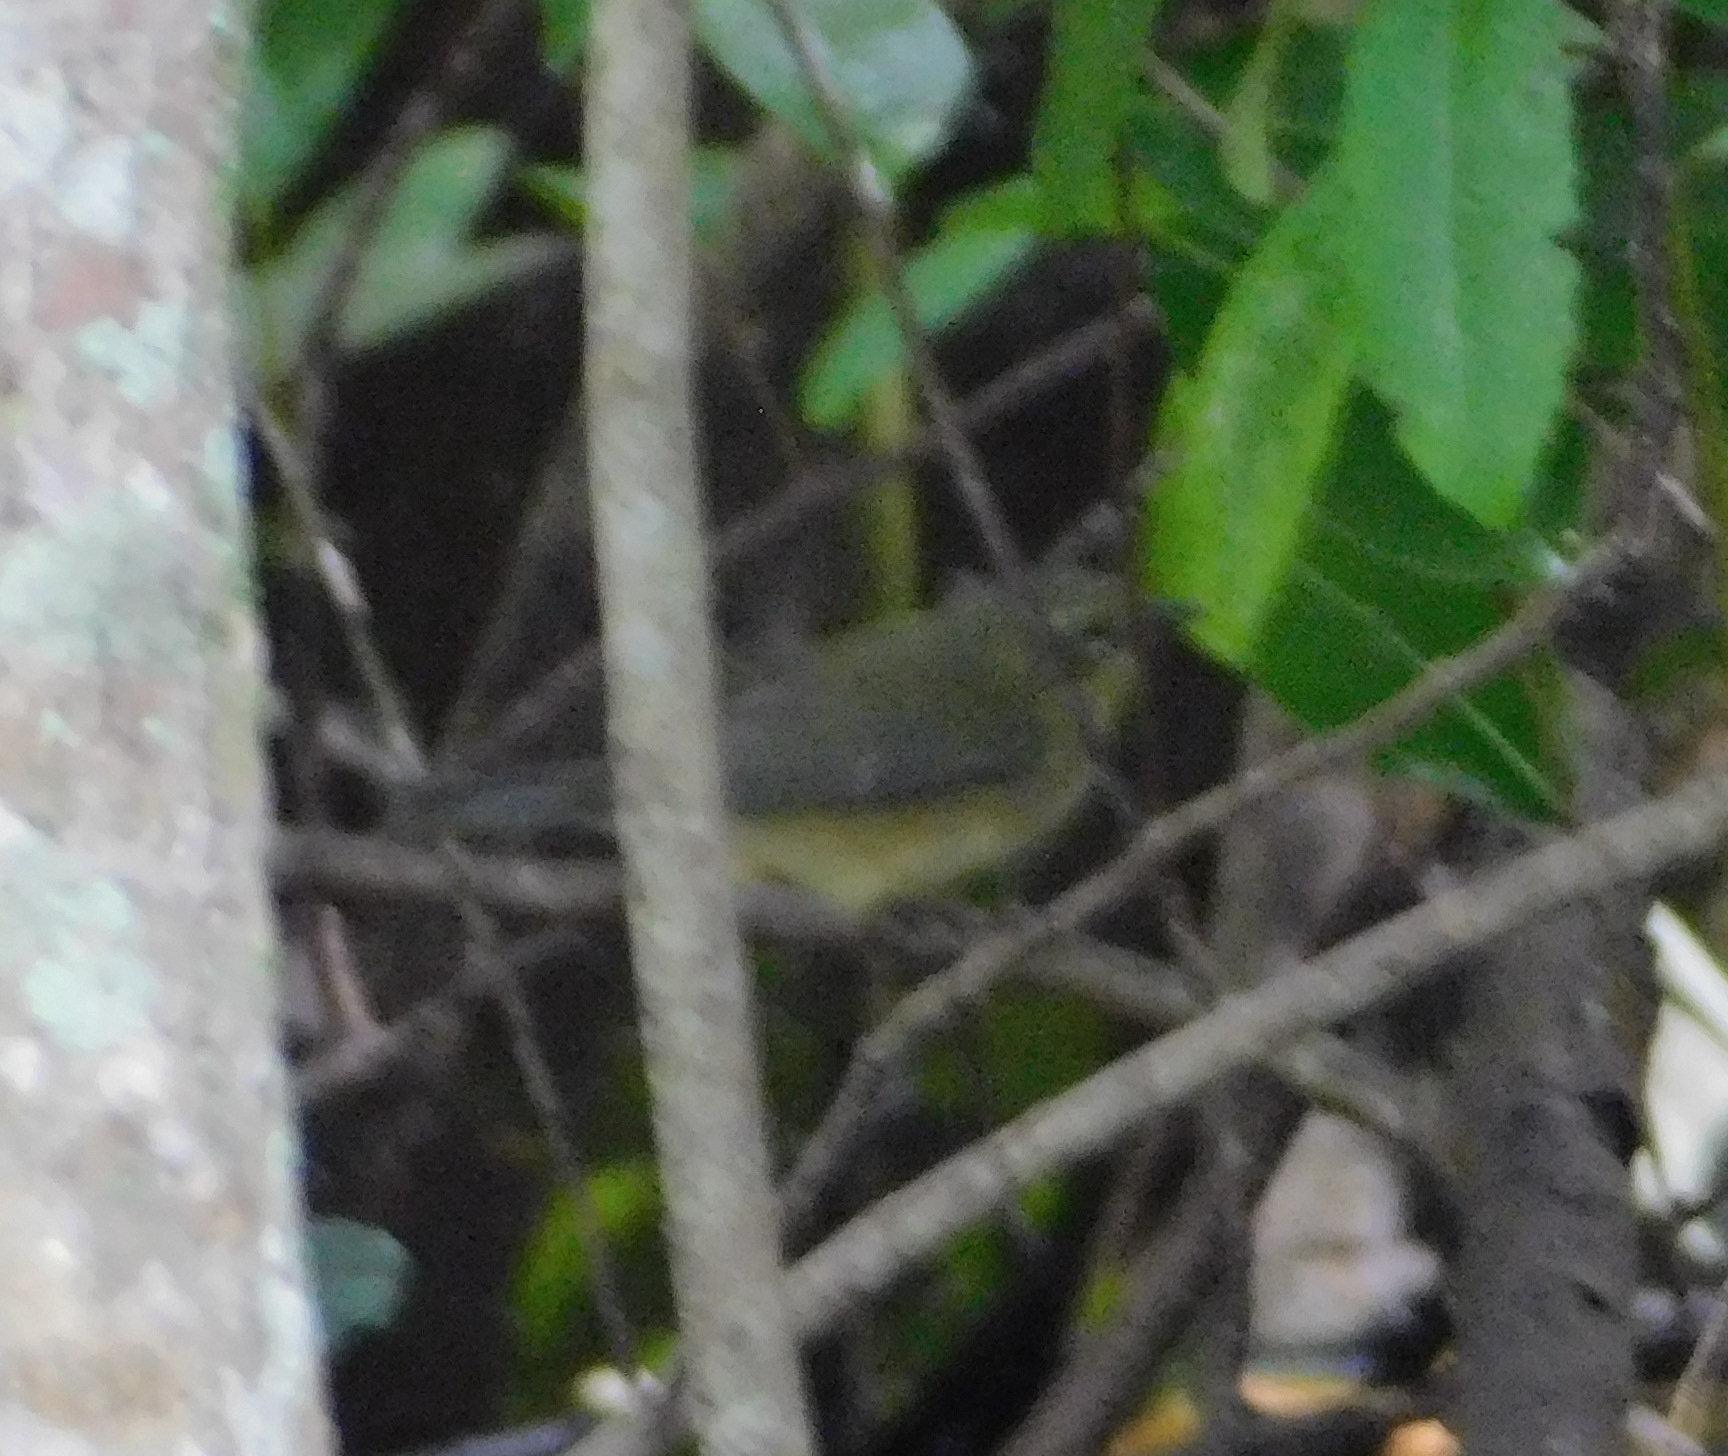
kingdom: Animalia
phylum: Chordata
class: Aves
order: Passeriformes
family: Parulidae
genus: Setophaga
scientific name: Setophaga caerulescens
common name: Black-throated blue warbler
